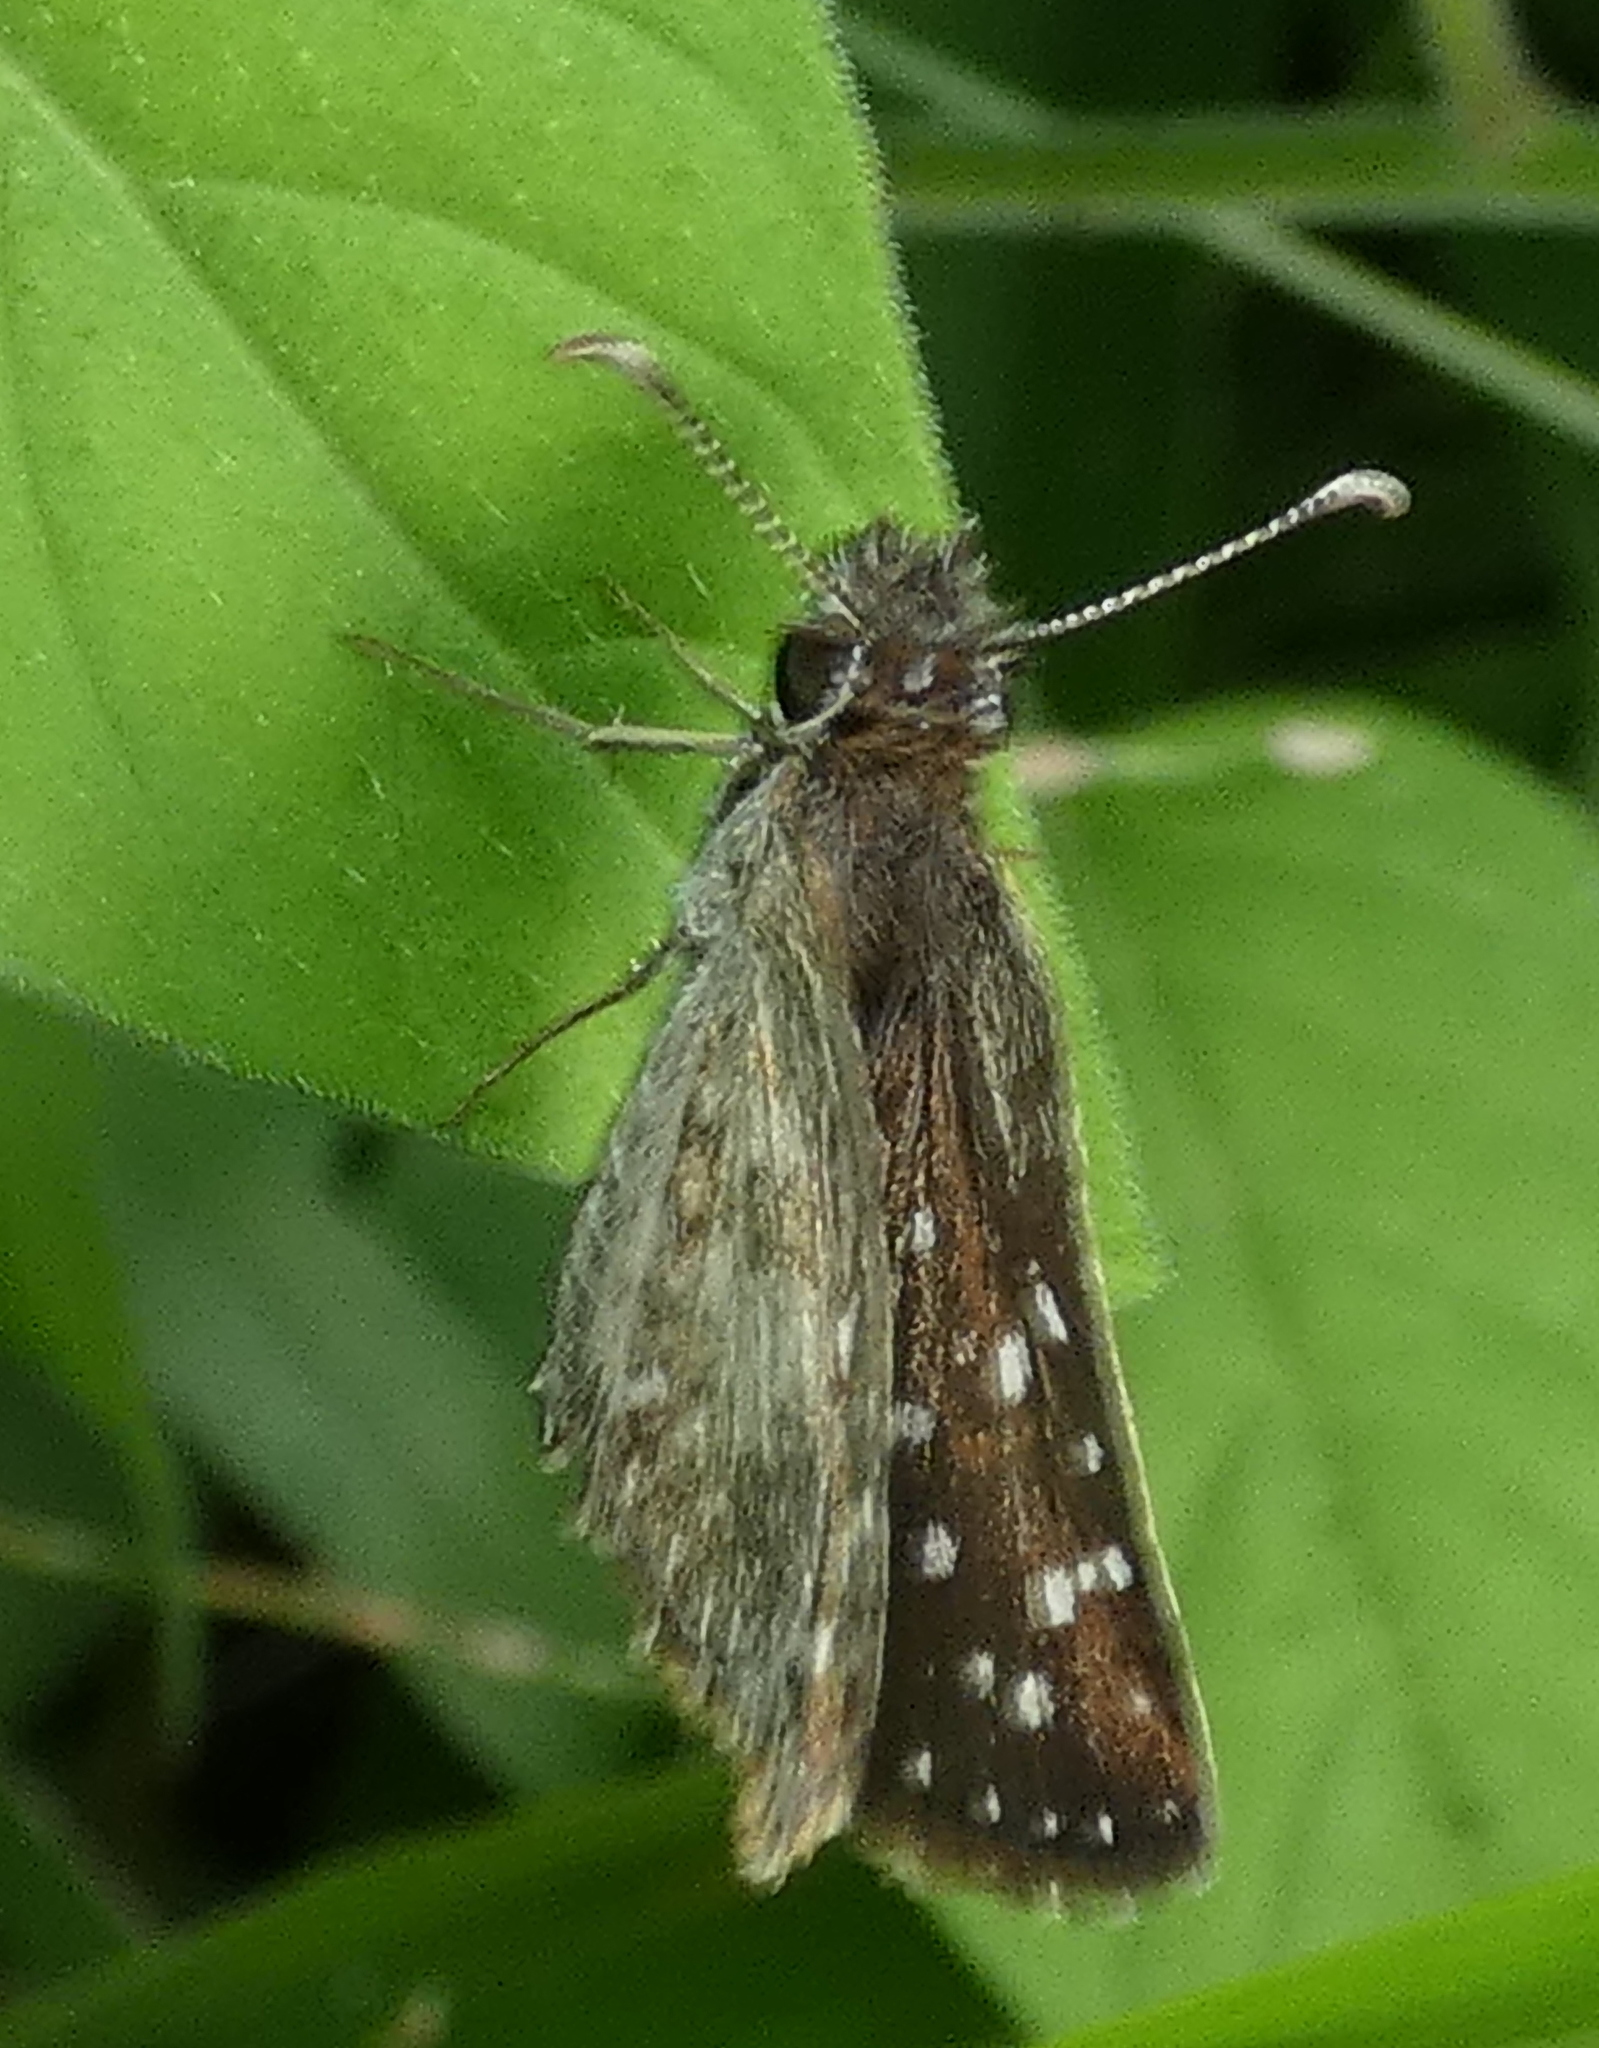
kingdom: Animalia
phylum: Arthropoda
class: Insecta
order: Lepidoptera
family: Hesperiidae
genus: Pyrgus
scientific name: Pyrgus oileus
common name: Tropical checkered-skipper
